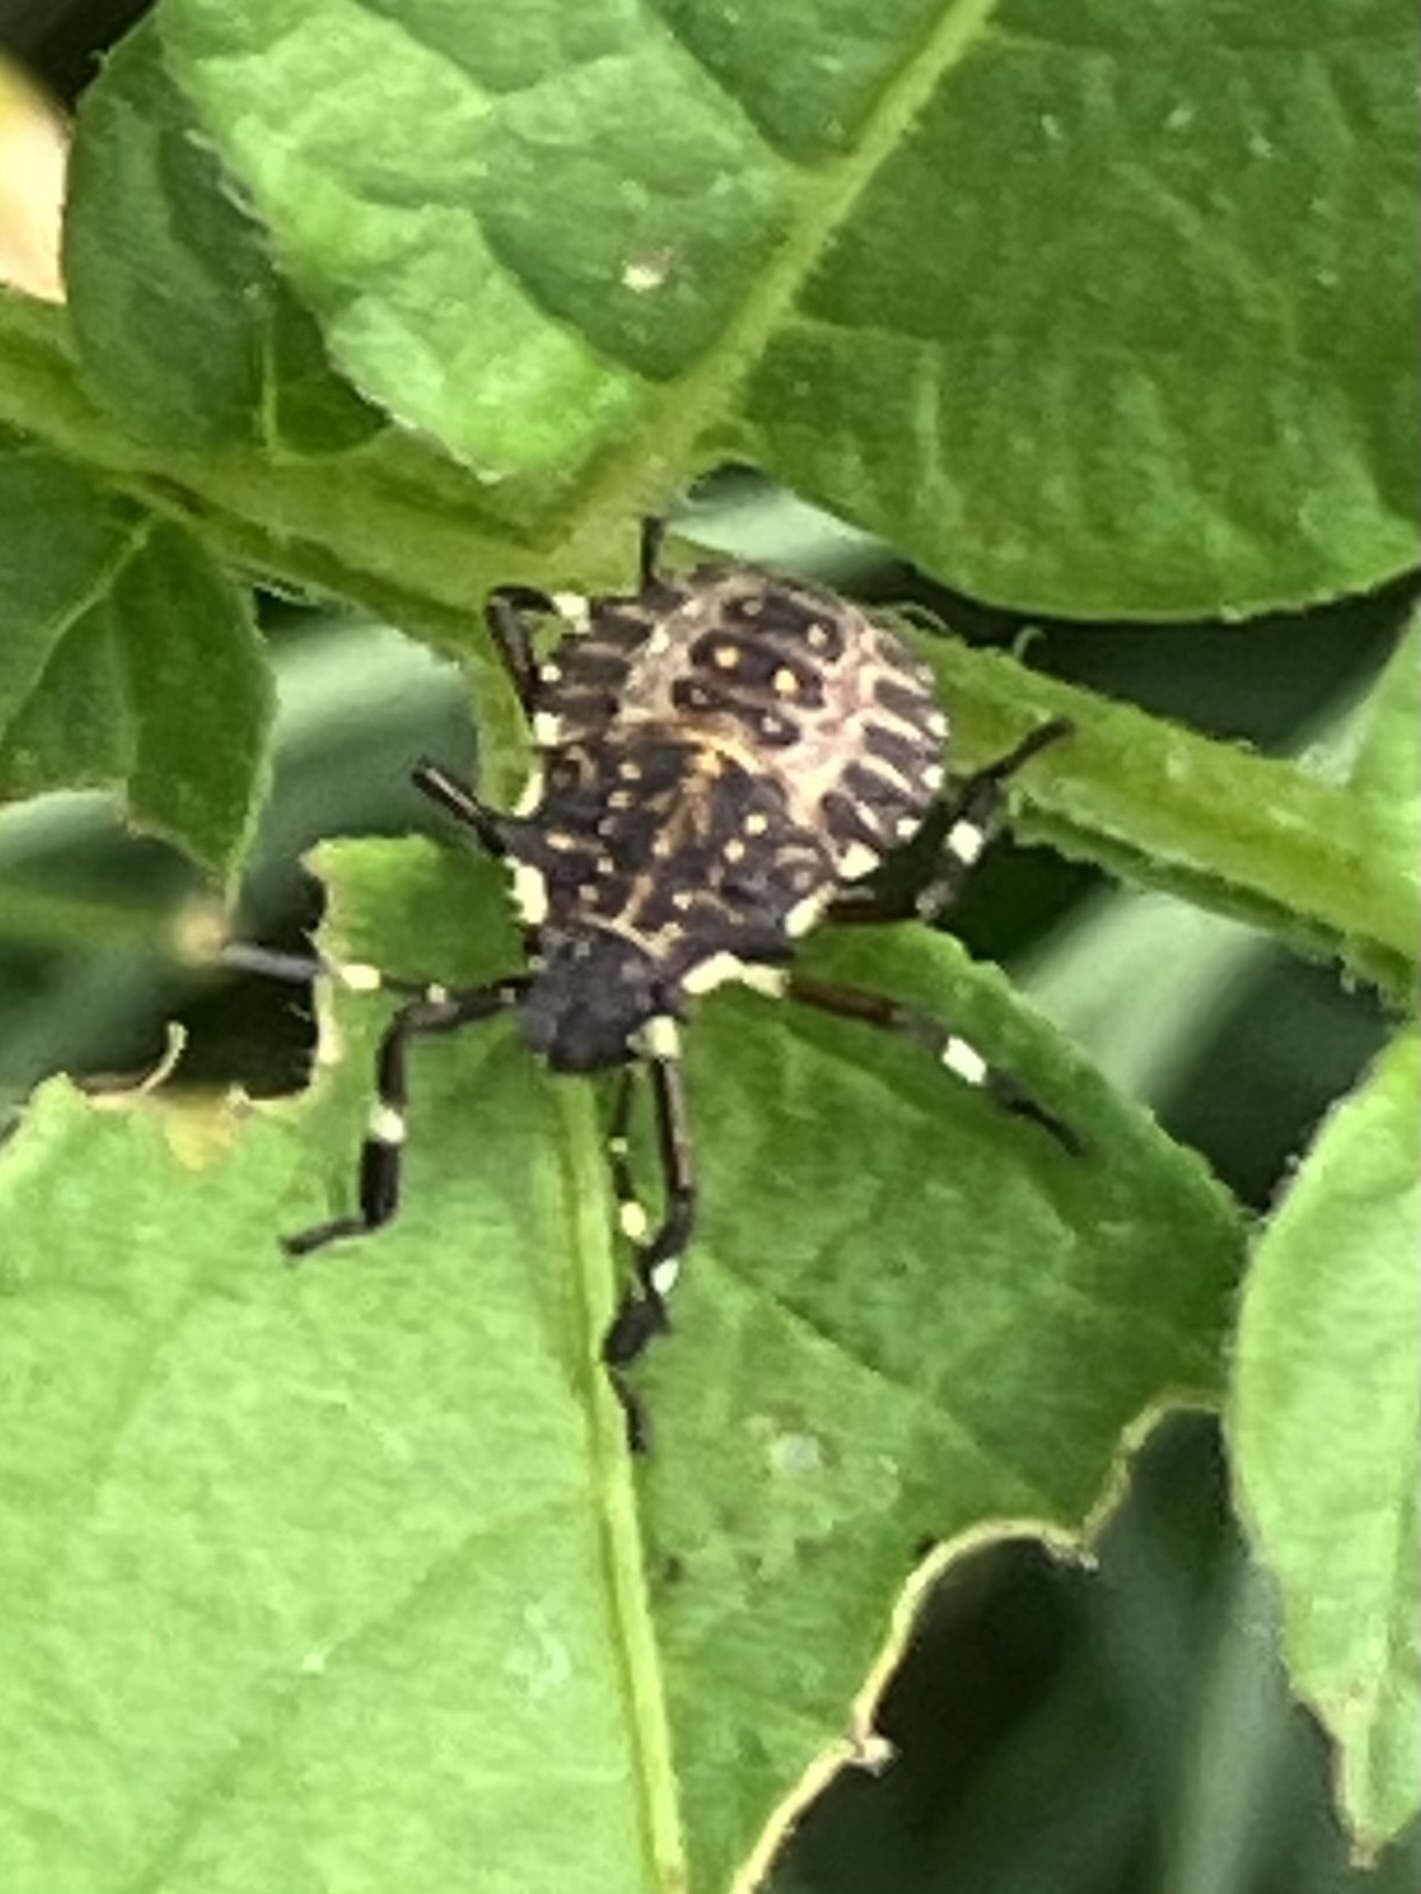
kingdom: Animalia
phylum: Arthropoda
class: Insecta
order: Hemiptera
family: Pentatomidae
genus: Halyomorpha
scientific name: Halyomorpha halys
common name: Brown marmorated stink bug
